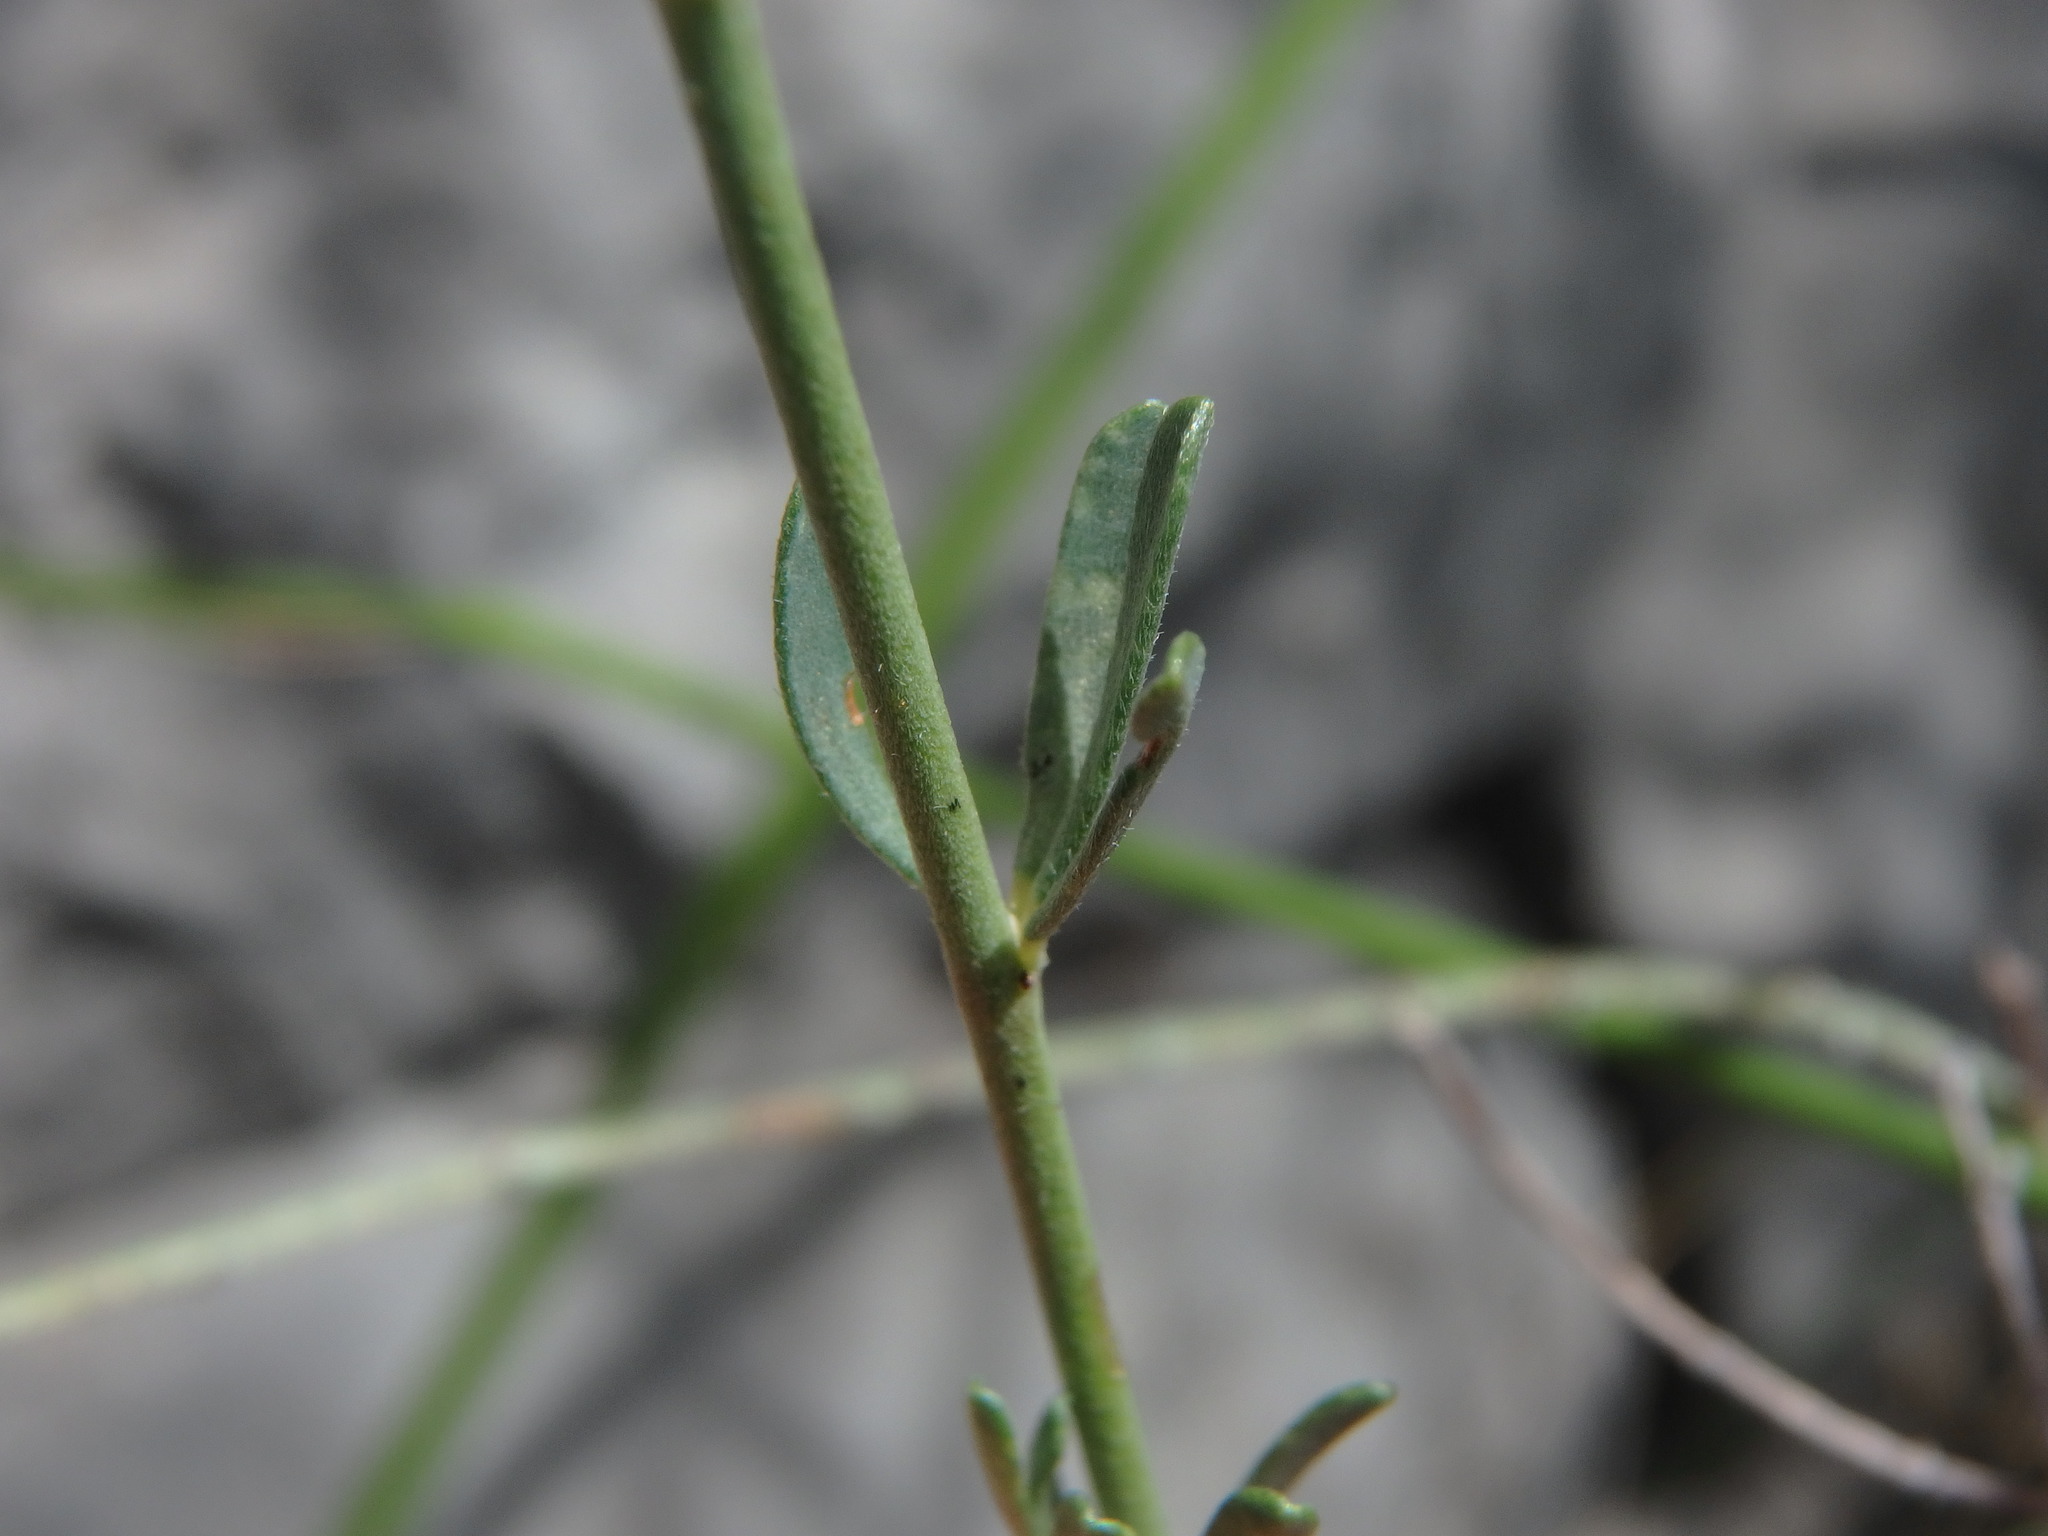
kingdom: Plantae
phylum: Tracheophyta
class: Magnoliopsida
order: Fabales
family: Fabaceae
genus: Lotus
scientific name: Lotus dorycnium
